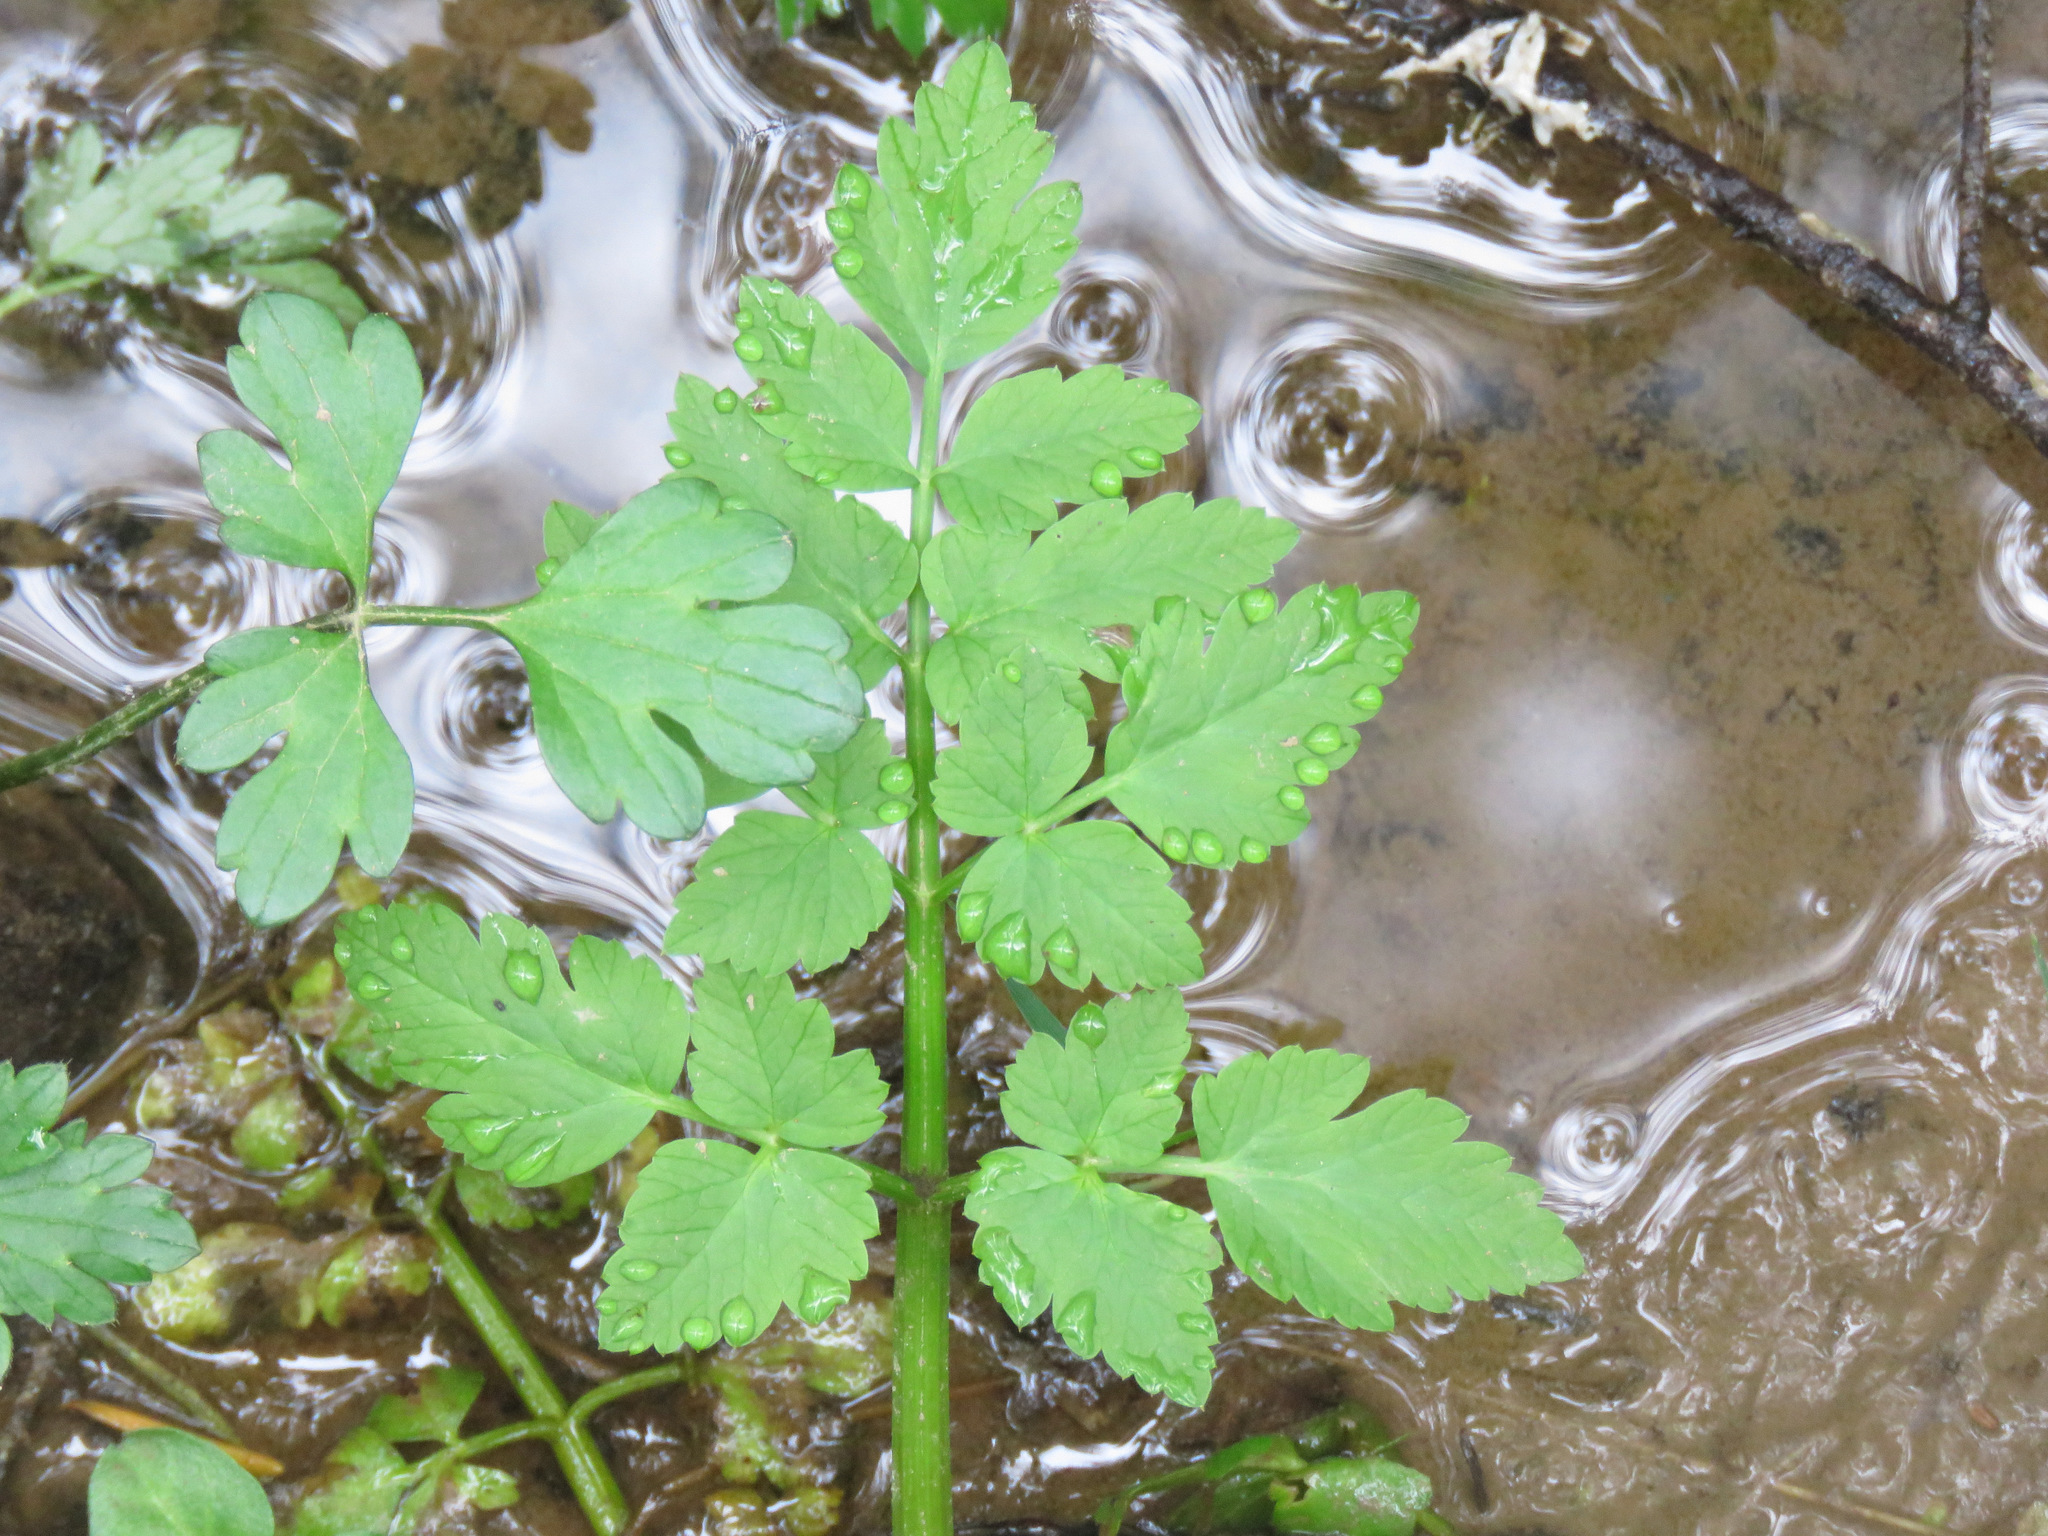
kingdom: Plantae
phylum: Tracheophyta
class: Magnoliopsida
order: Apiales
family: Apiaceae
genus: Oenanthe
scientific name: Oenanthe sarmentosa
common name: American water-parsley
